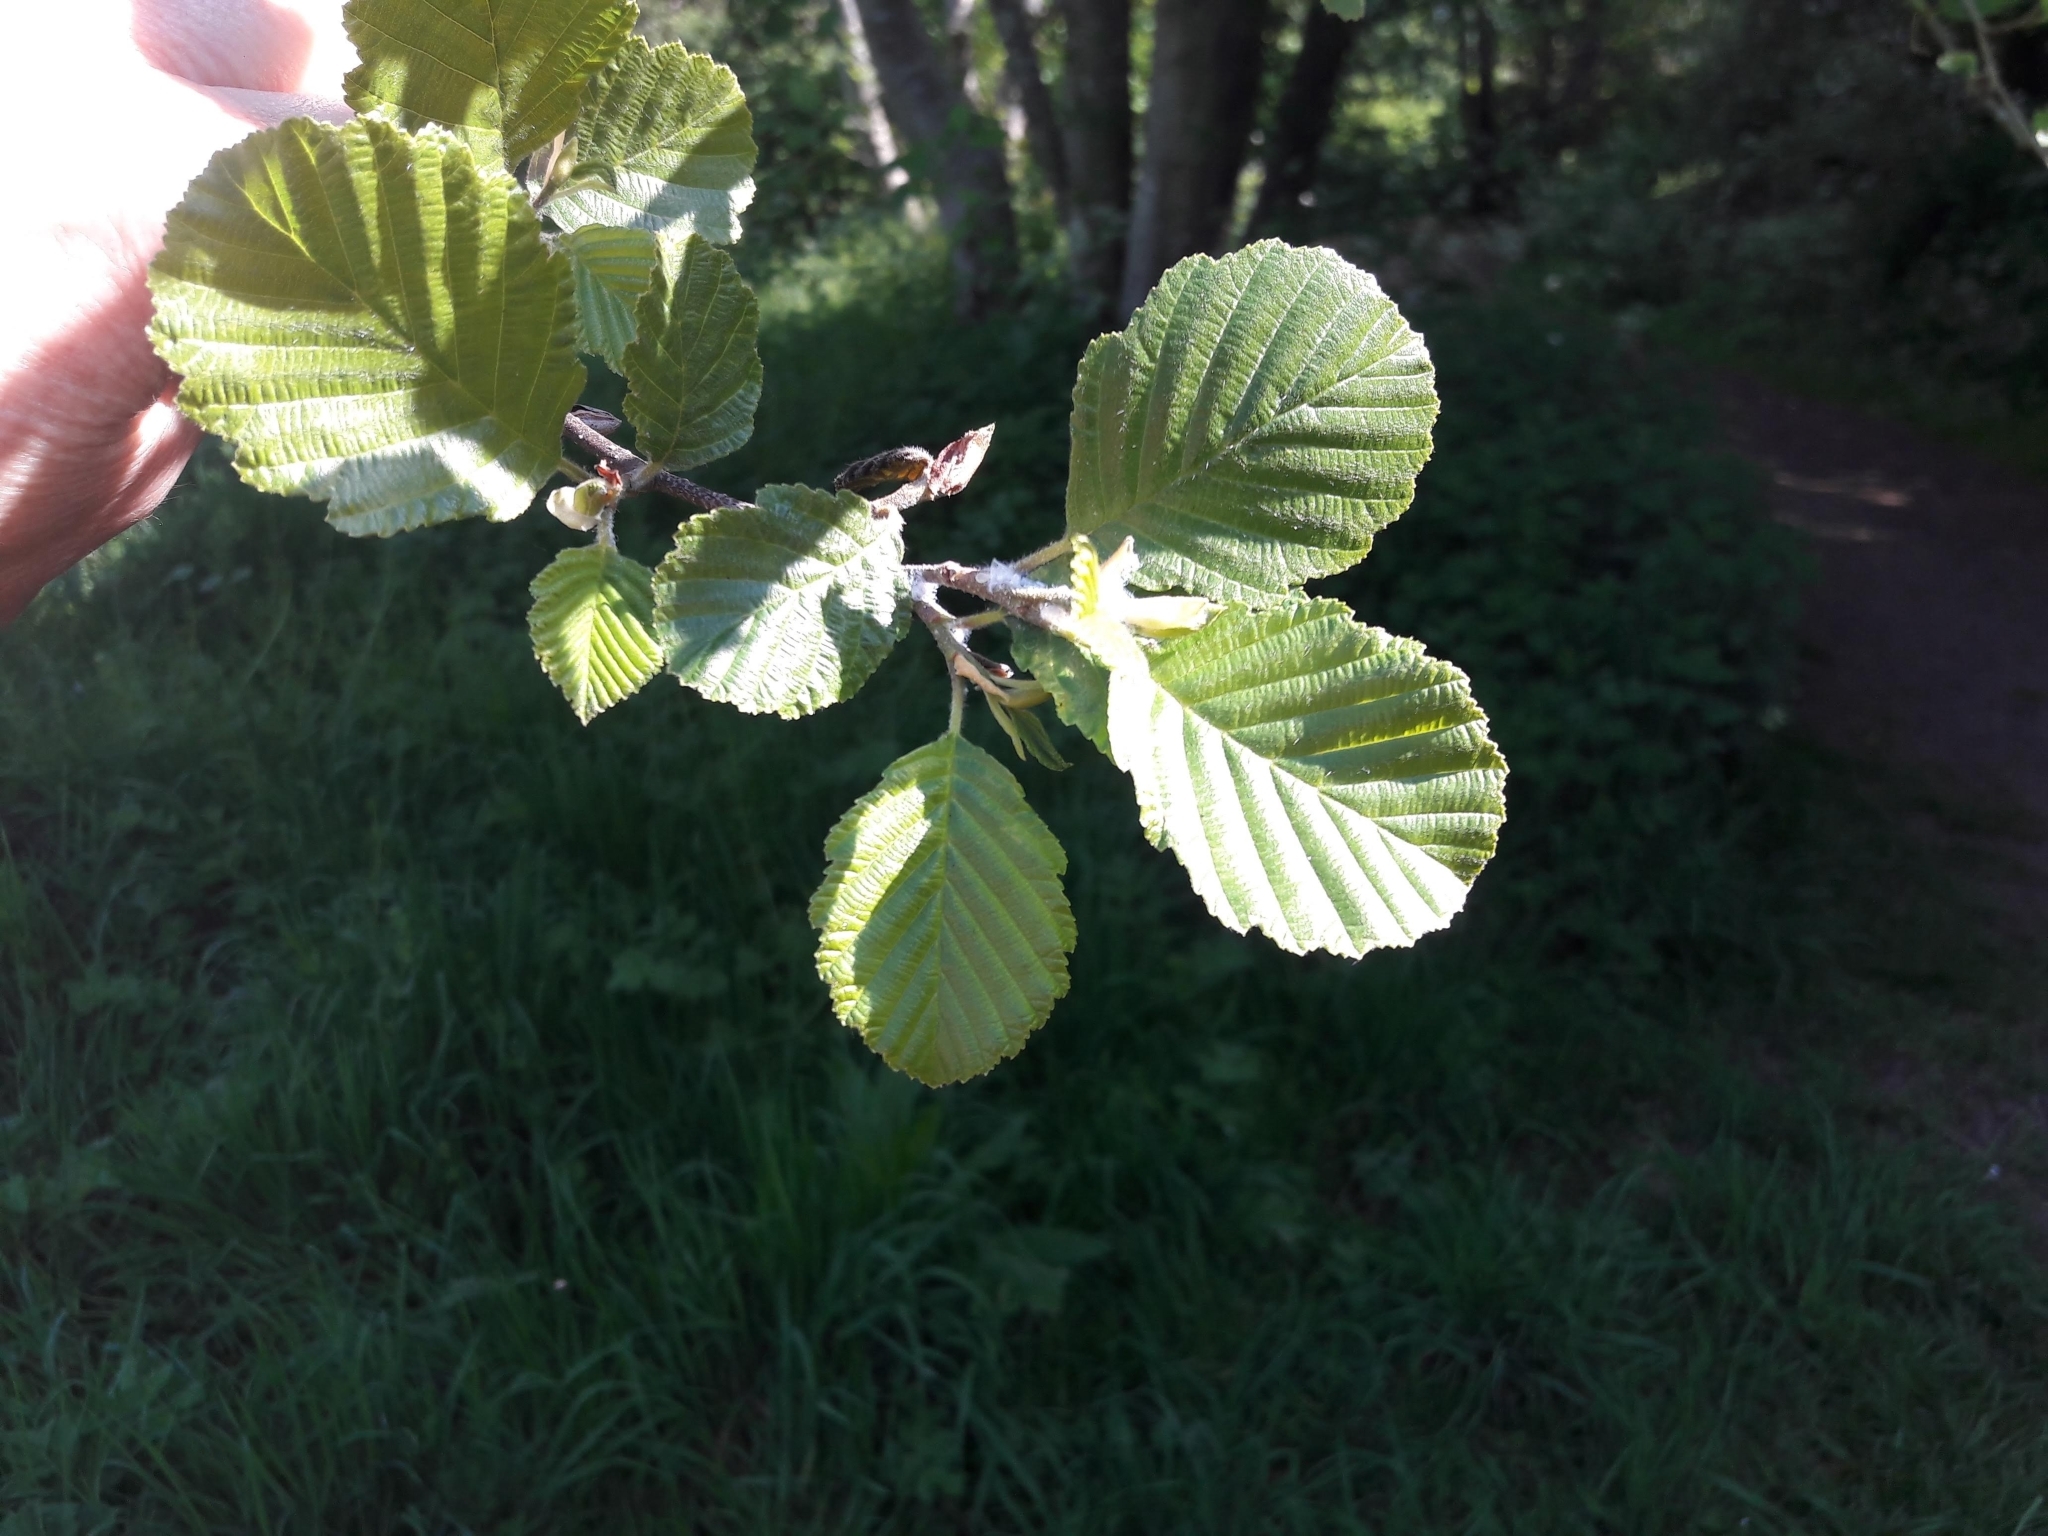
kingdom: Plantae
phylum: Tracheophyta
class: Magnoliopsida
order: Fagales
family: Betulaceae
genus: Alnus
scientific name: Alnus glutinosa
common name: Black alder
